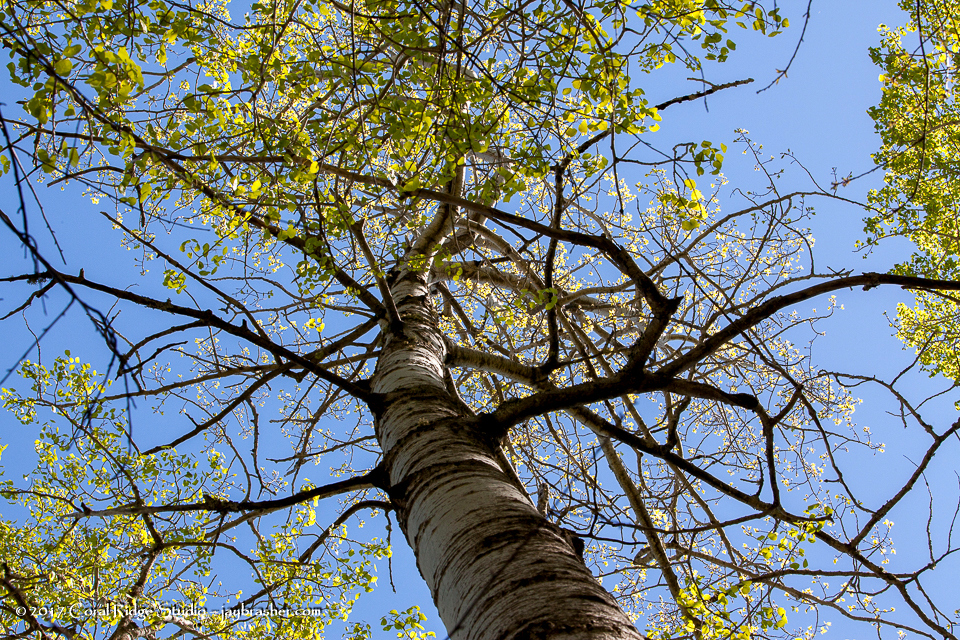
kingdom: Plantae
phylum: Tracheophyta
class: Magnoliopsida
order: Malpighiales
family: Salicaceae
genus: Populus
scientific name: Populus tremuloides
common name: Quaking aspen
